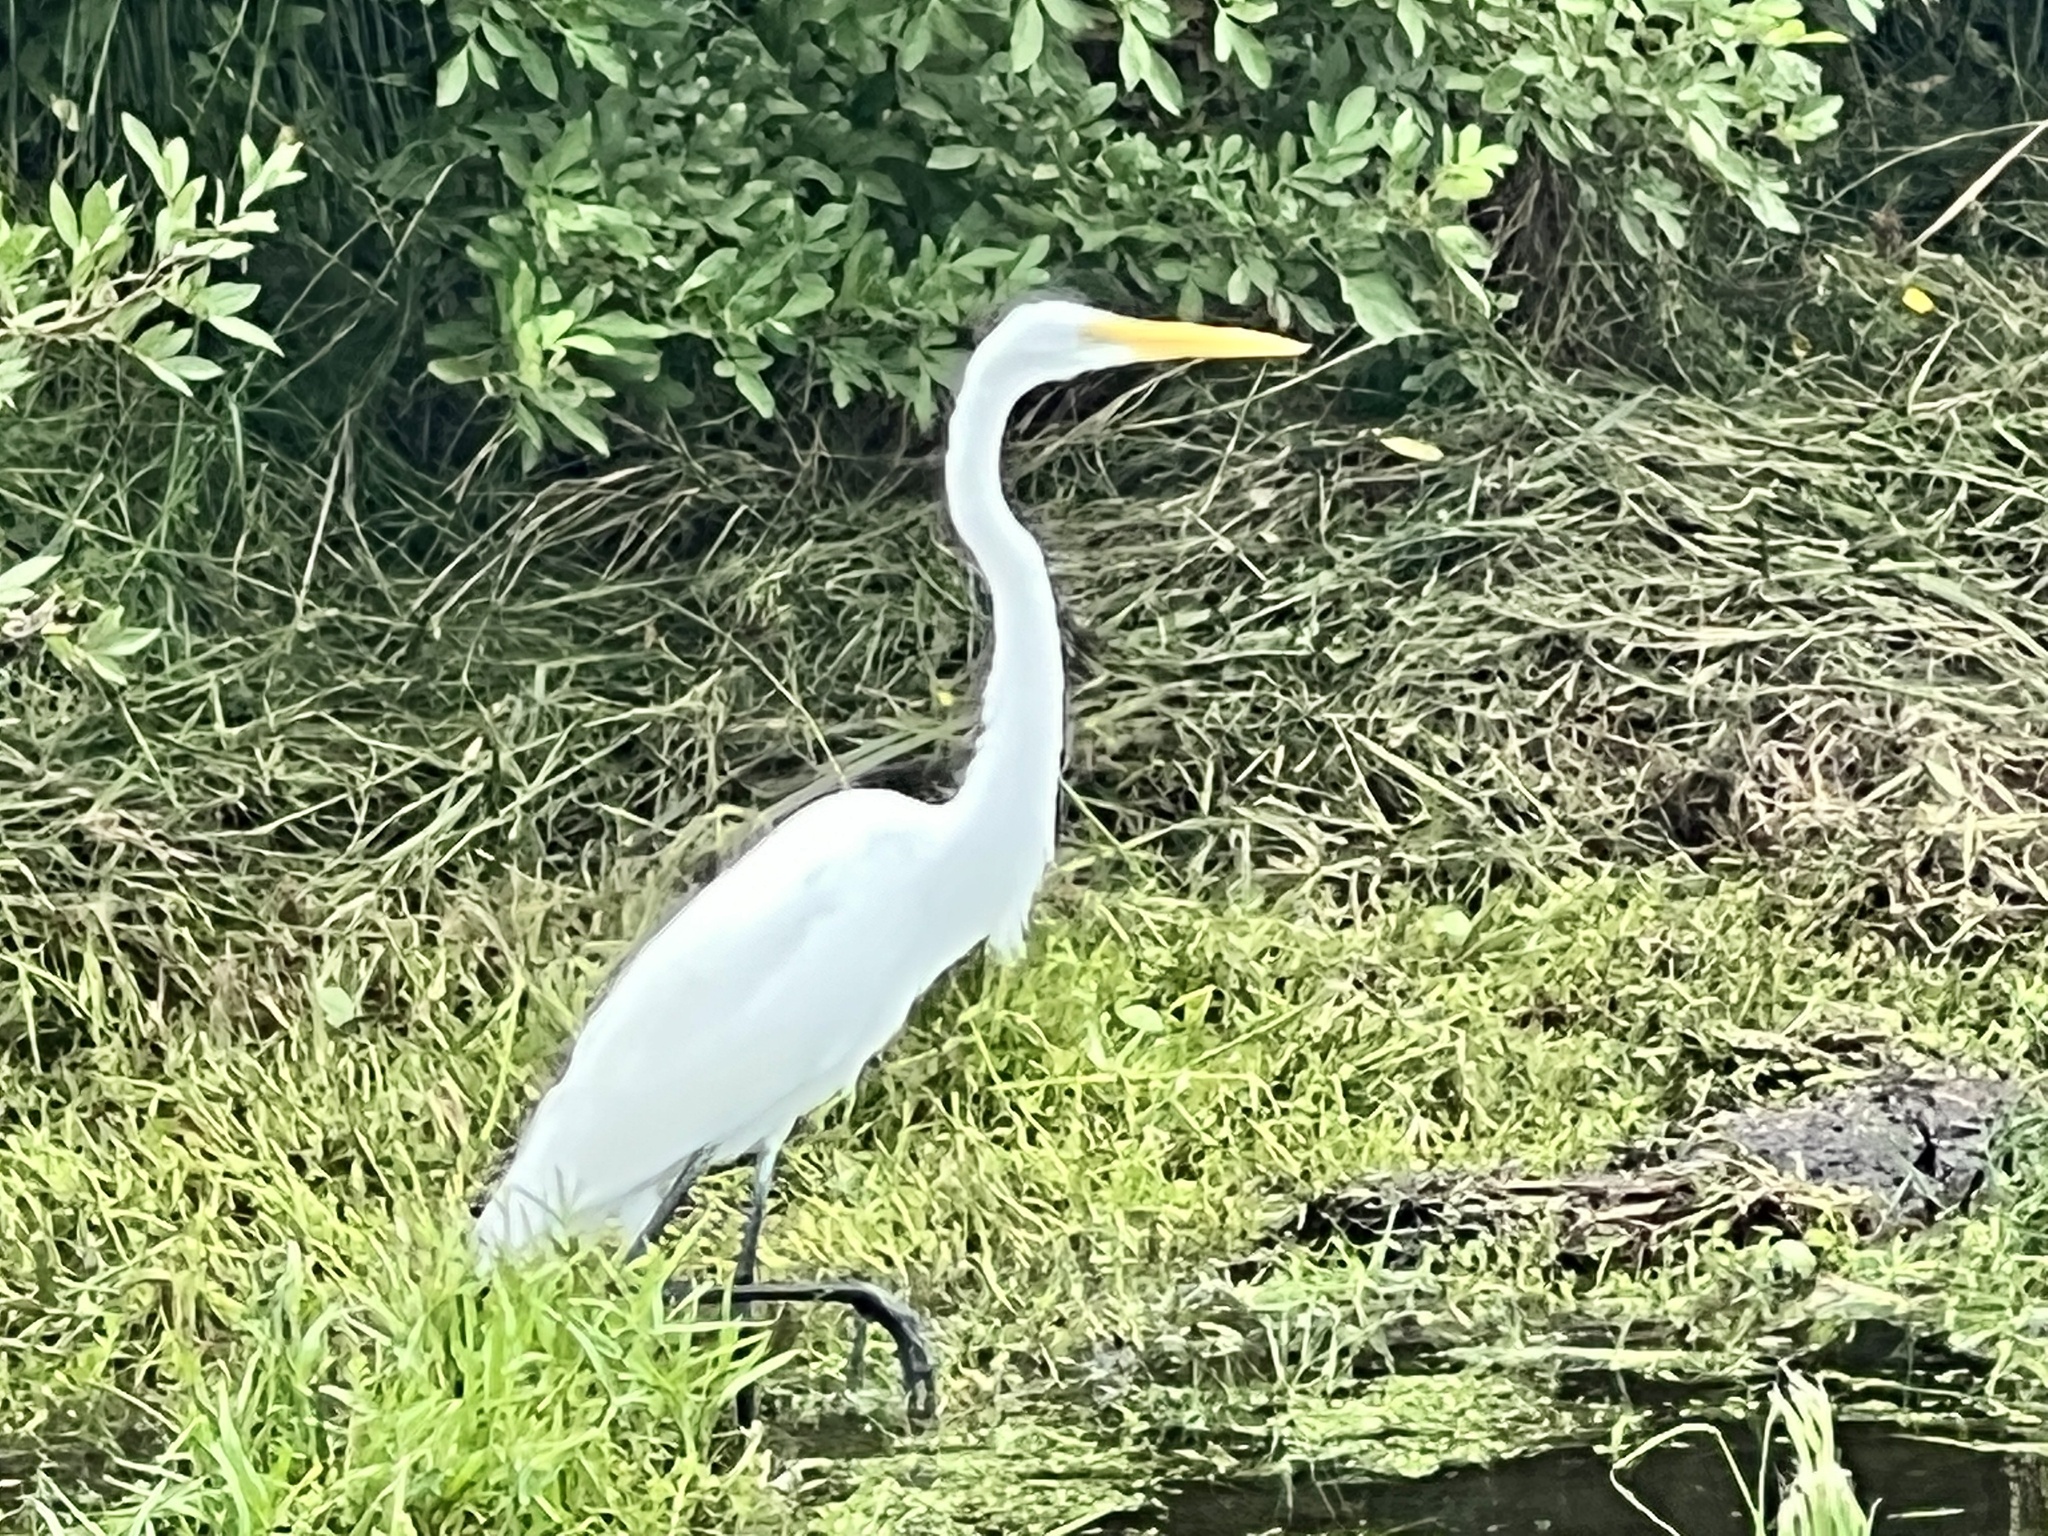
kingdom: Animalia
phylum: Chordata
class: Aves
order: Pelecaniformes
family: Ardeidae
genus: Ardea
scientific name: Ardea alba
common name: Great egret
